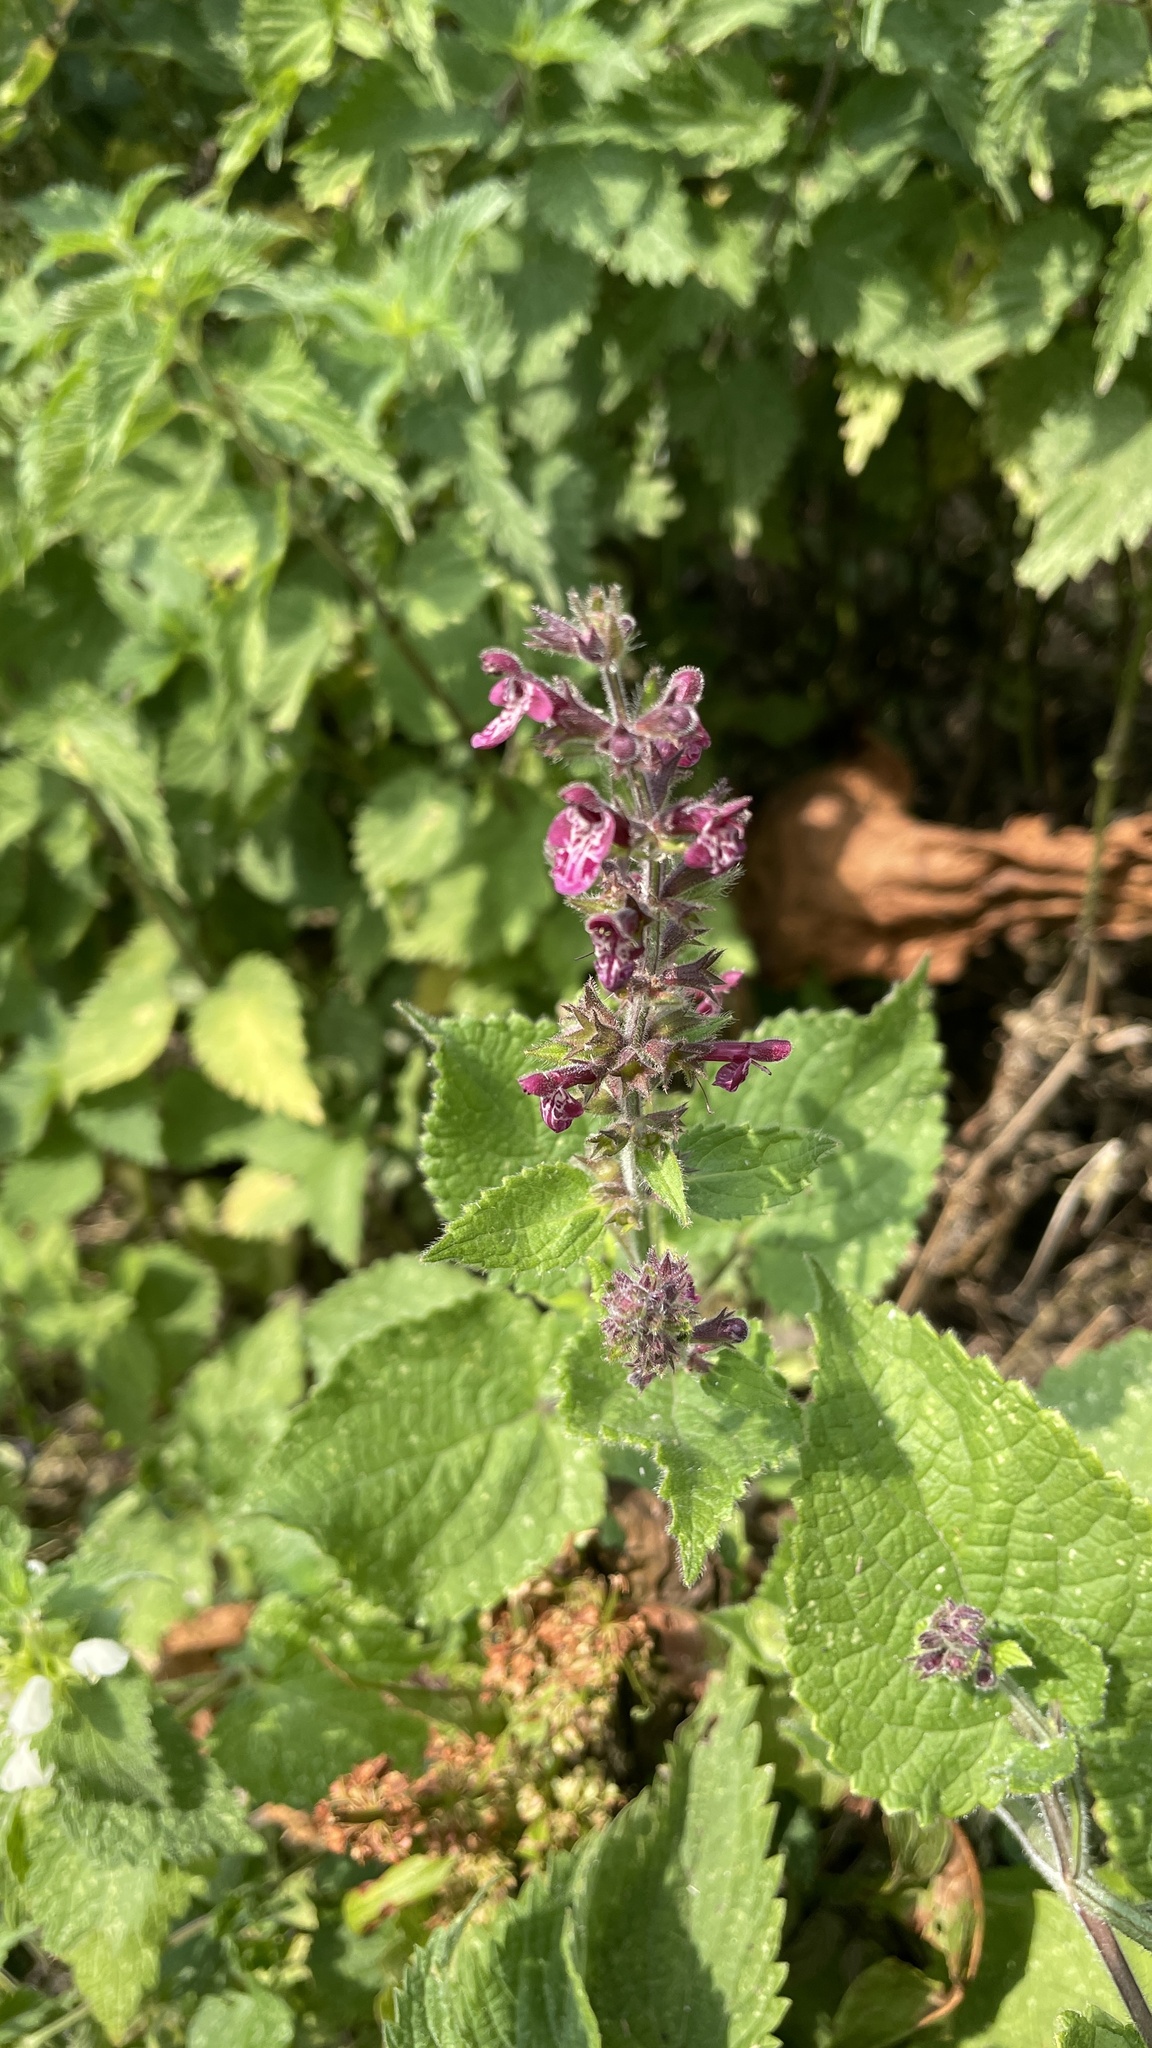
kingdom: Plantae
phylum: Tracheophyta
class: Magnoliopsida
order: Lamiales
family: Lamiaceae
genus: Stachys
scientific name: Stachys sylvatica
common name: Hedge woundwort
